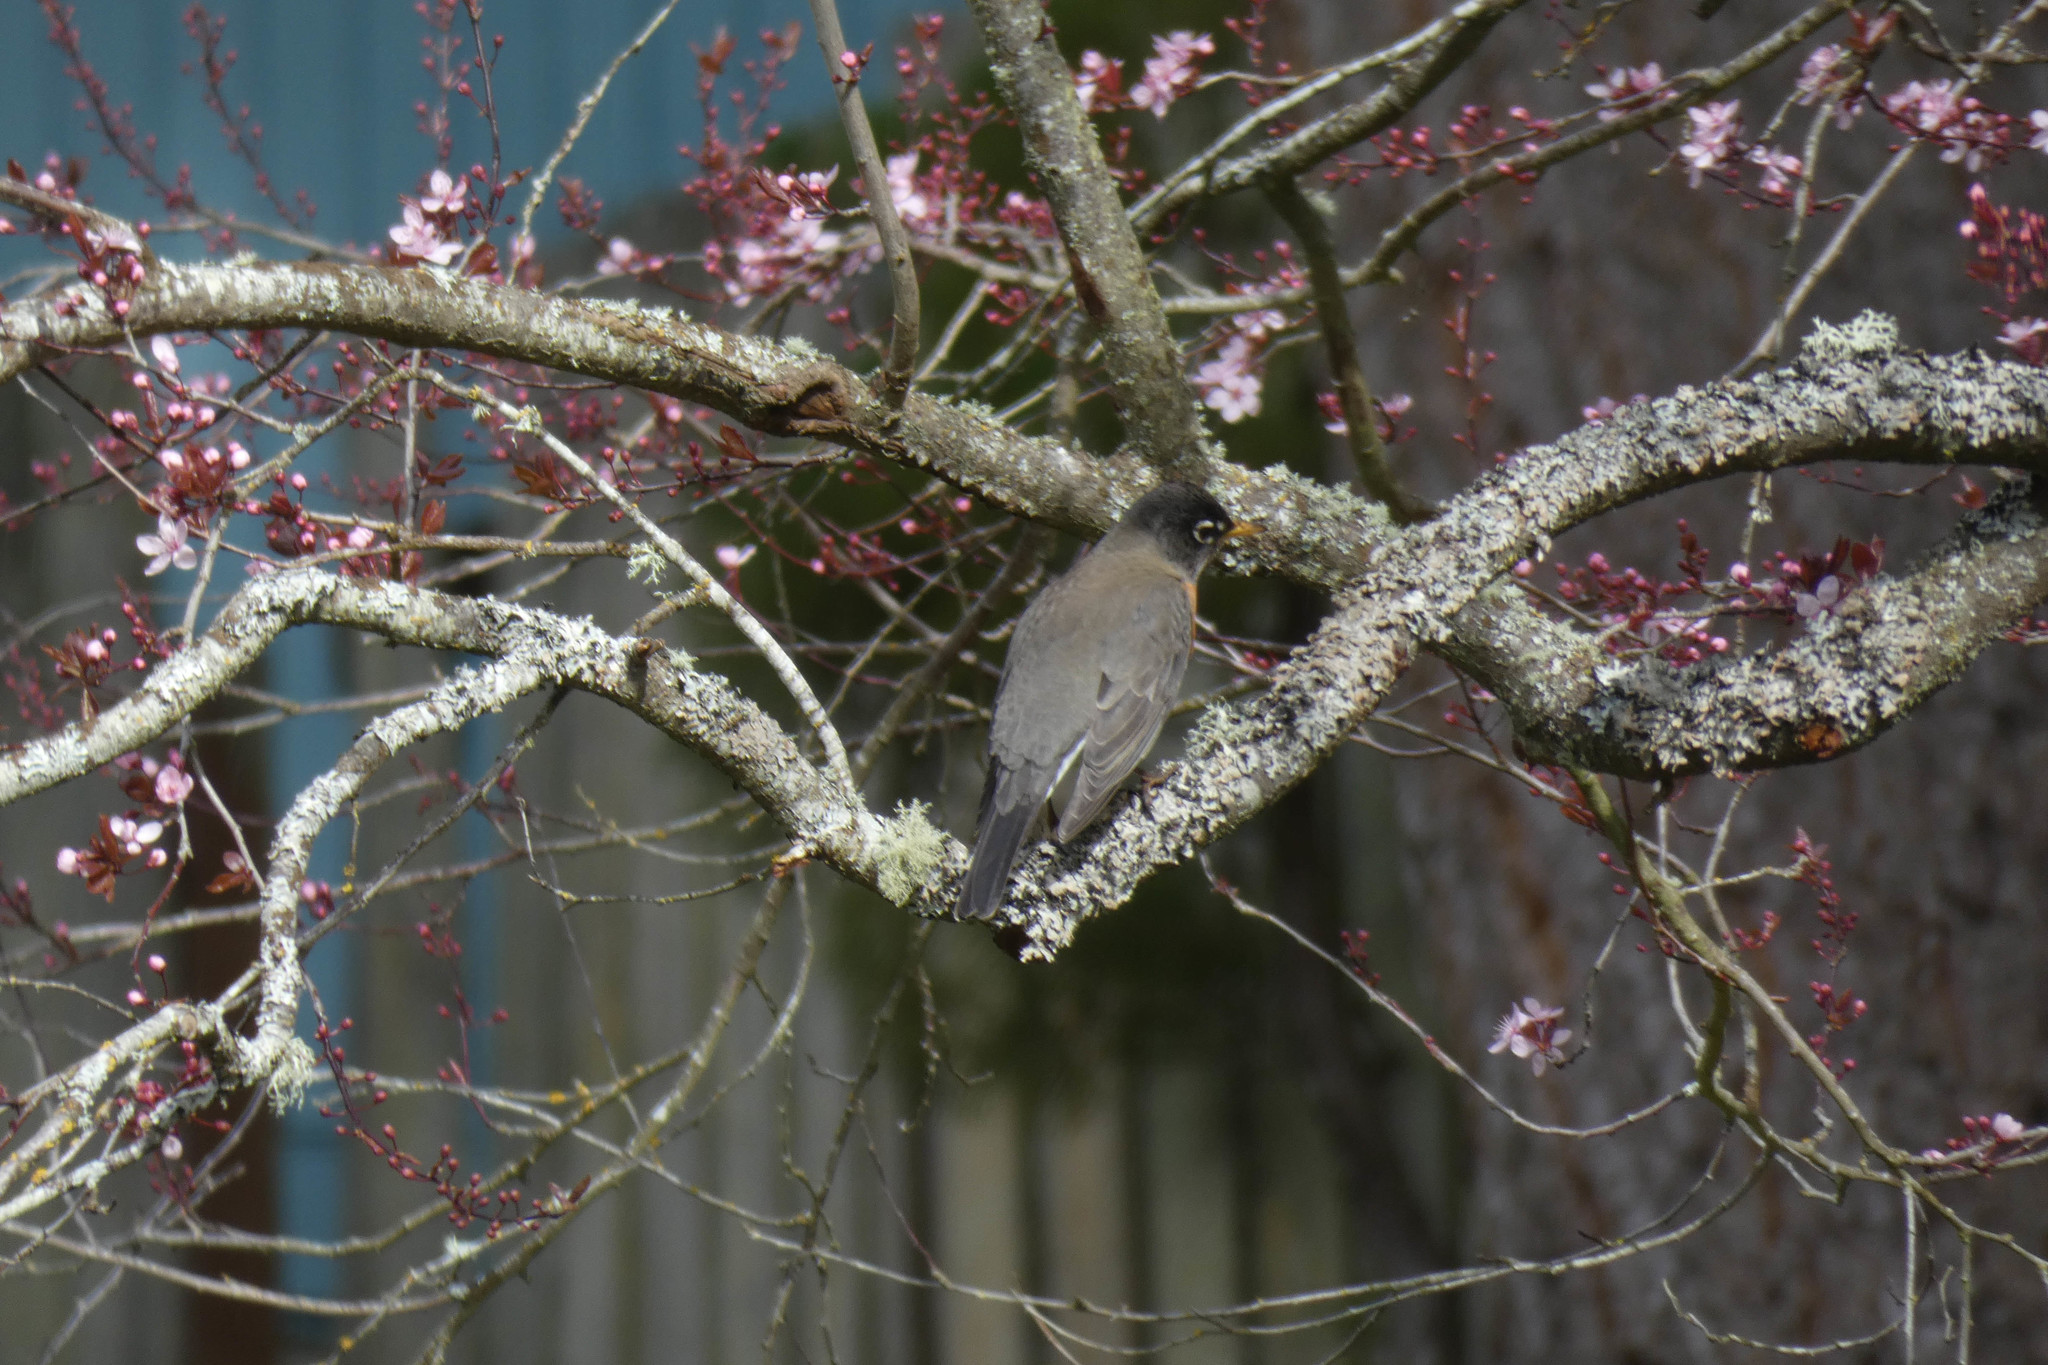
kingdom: Animalia
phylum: Chordata
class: Aves
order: Passeriformes
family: Turdidae
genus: Turdus
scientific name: Turdus migratorius
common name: American robin
